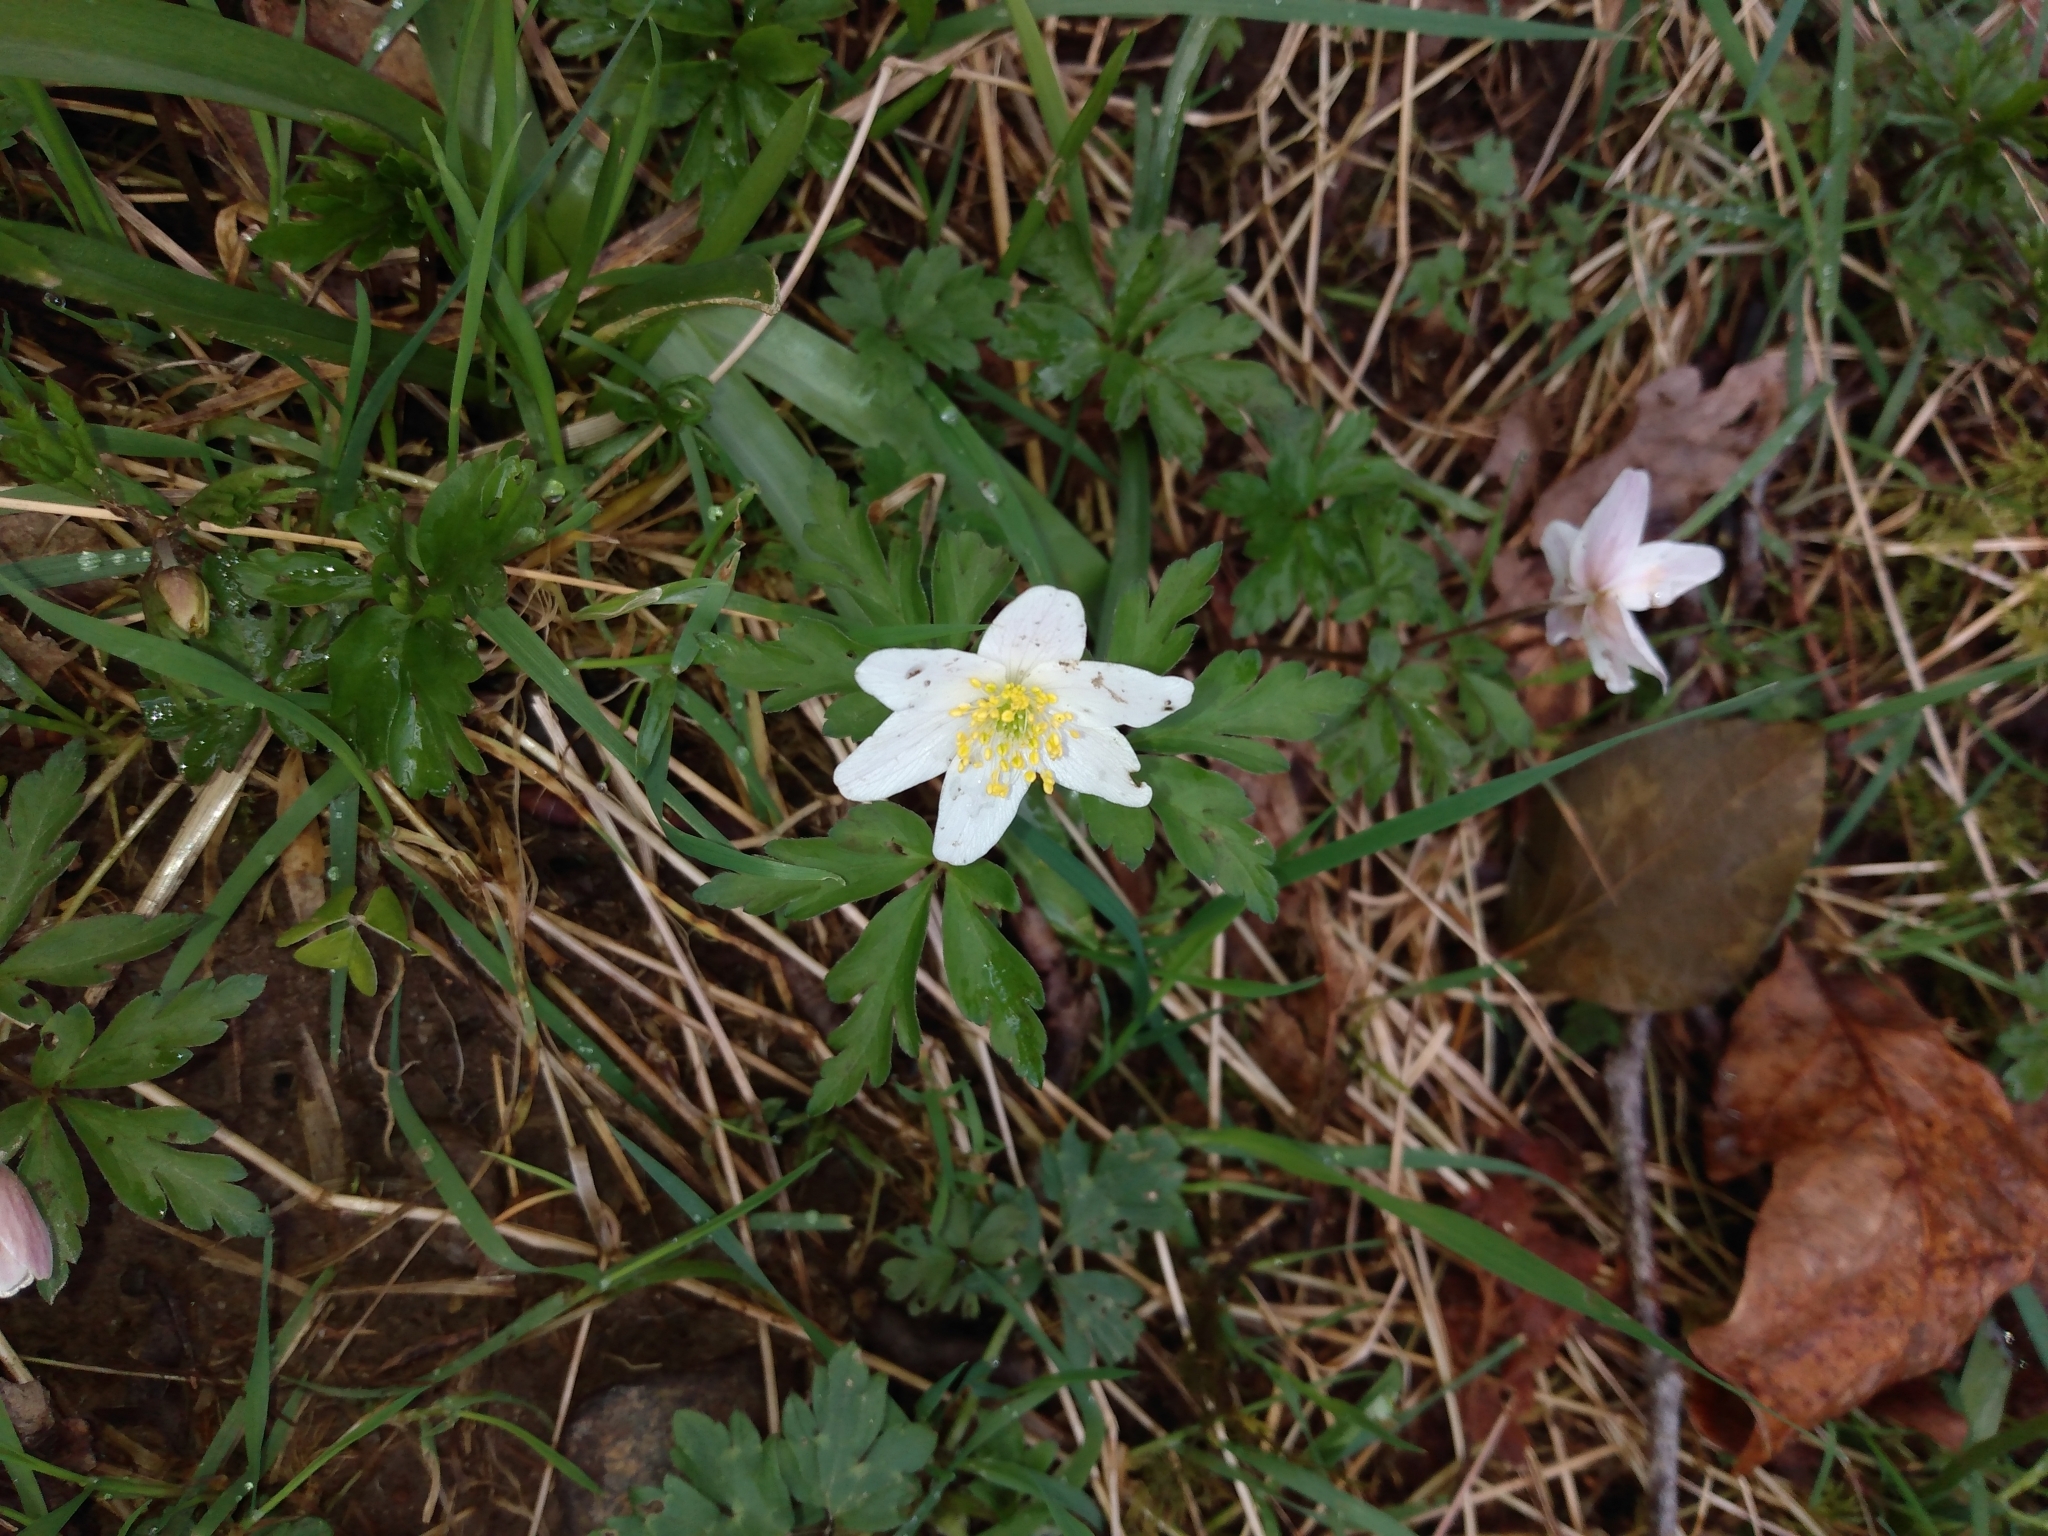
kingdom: Plantae
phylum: Tracheophyta
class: Magnoliopsida
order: Ranunculales
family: Ranunculaceae
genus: Anemone
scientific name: Anemone nemorosa
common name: Wood anemone
